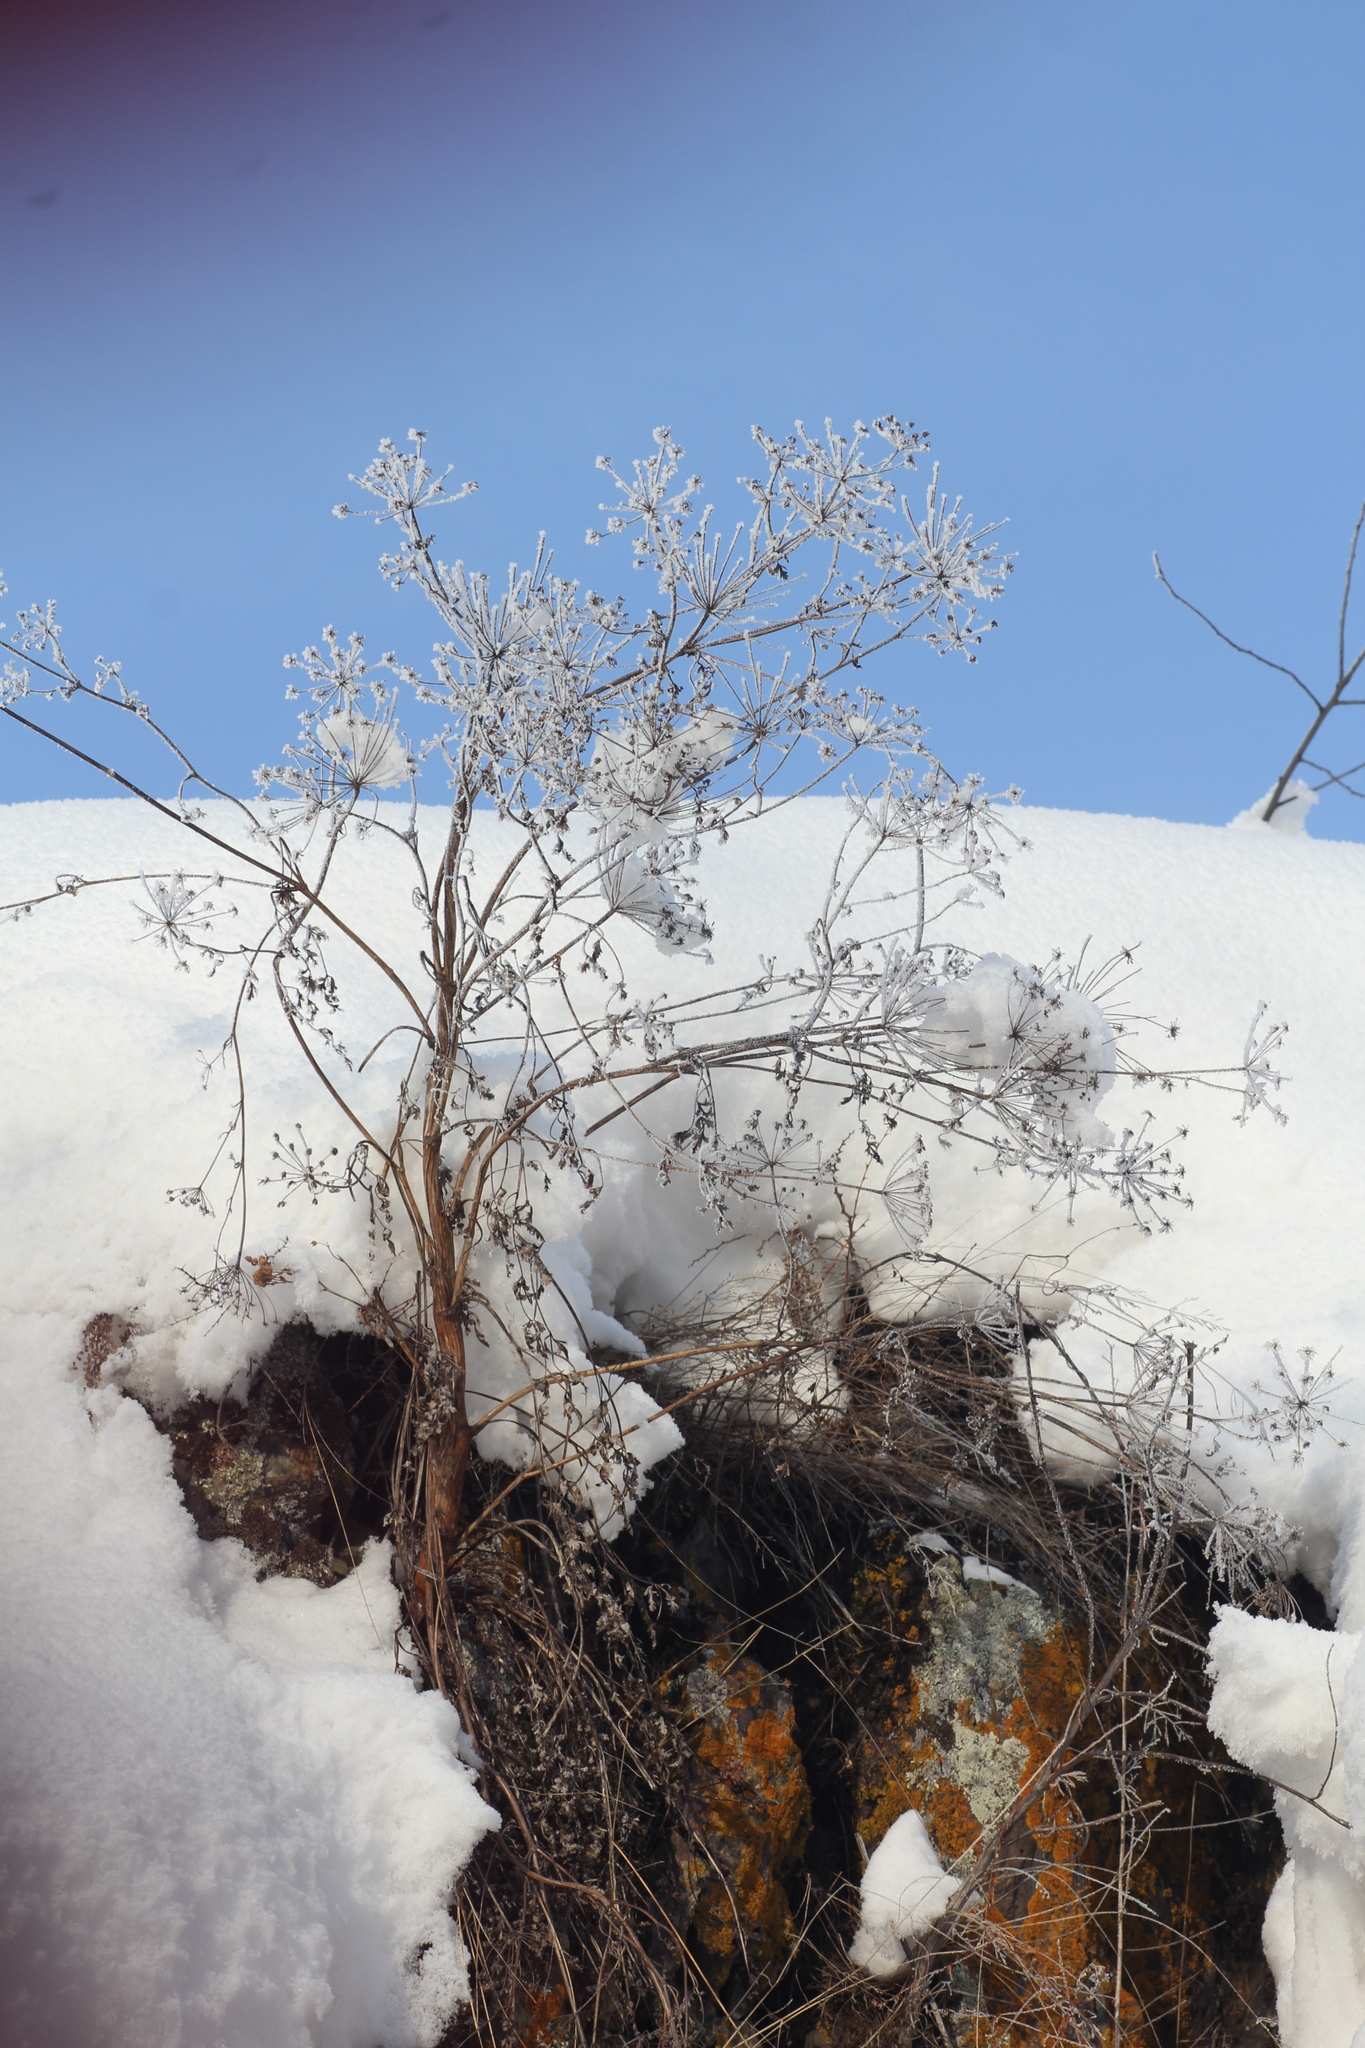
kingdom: Plantae
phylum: Tracheophyta
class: Magnoliopsida
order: Apiales
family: Apiaceae
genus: Kitagawia
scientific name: Kitagawia baicalensis
